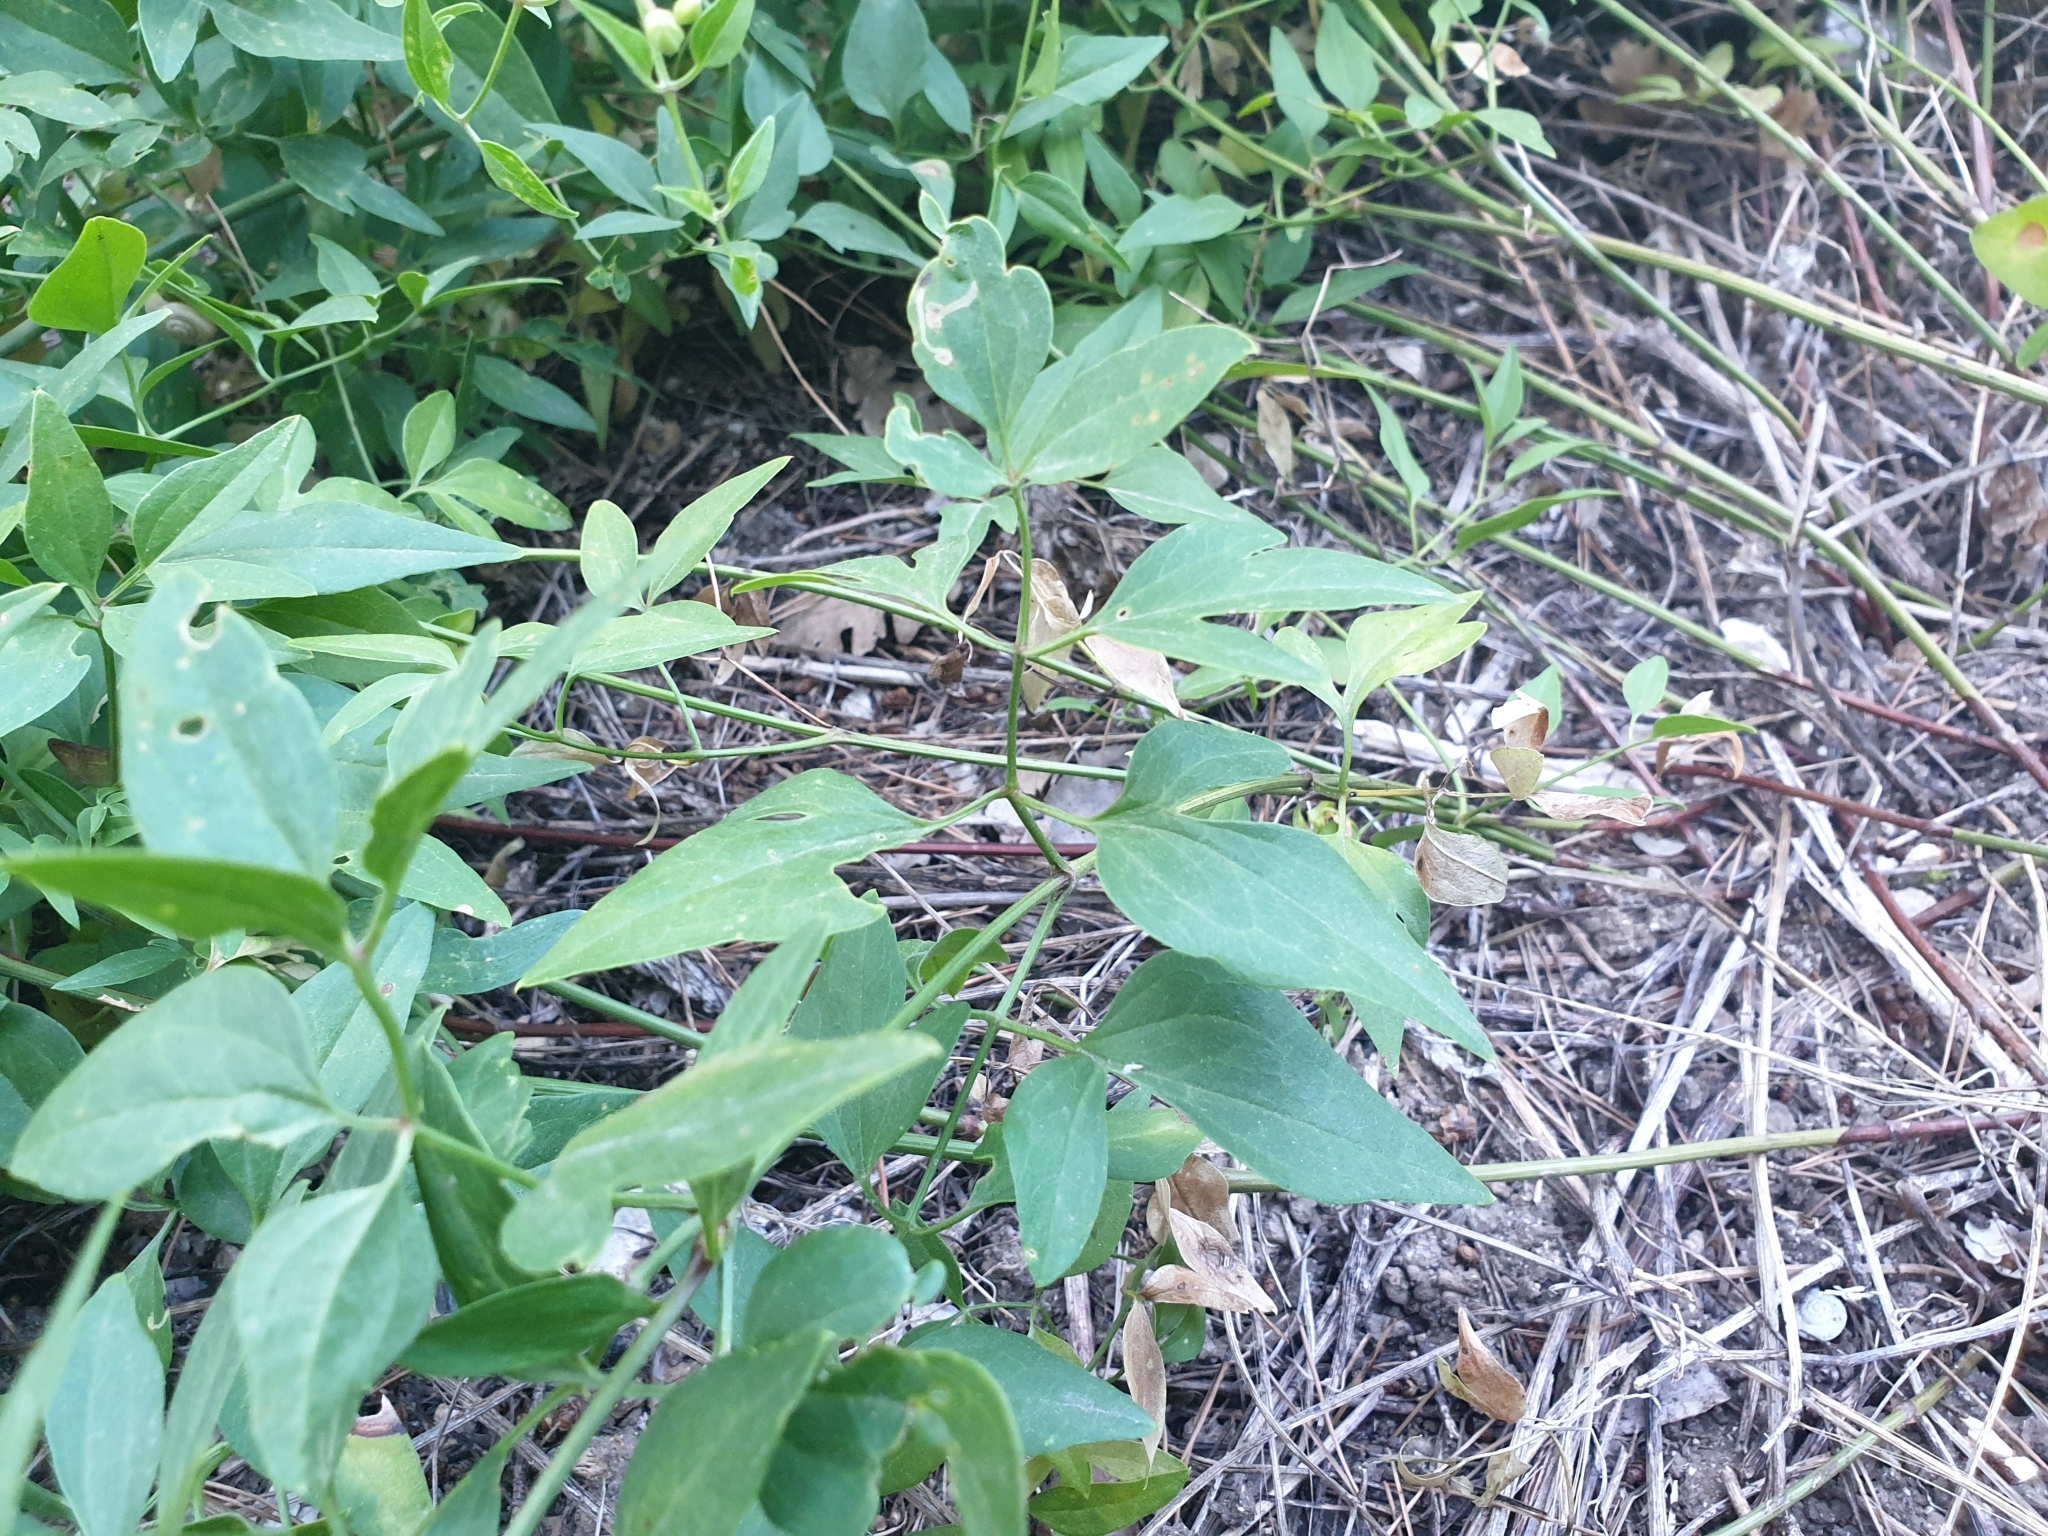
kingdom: Plantae
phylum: Tracheophyta
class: Magnoliopsida
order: Ranunculales
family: Ranunculaceae
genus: Clematis
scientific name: Clematis flammula
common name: Virgin's-bower
